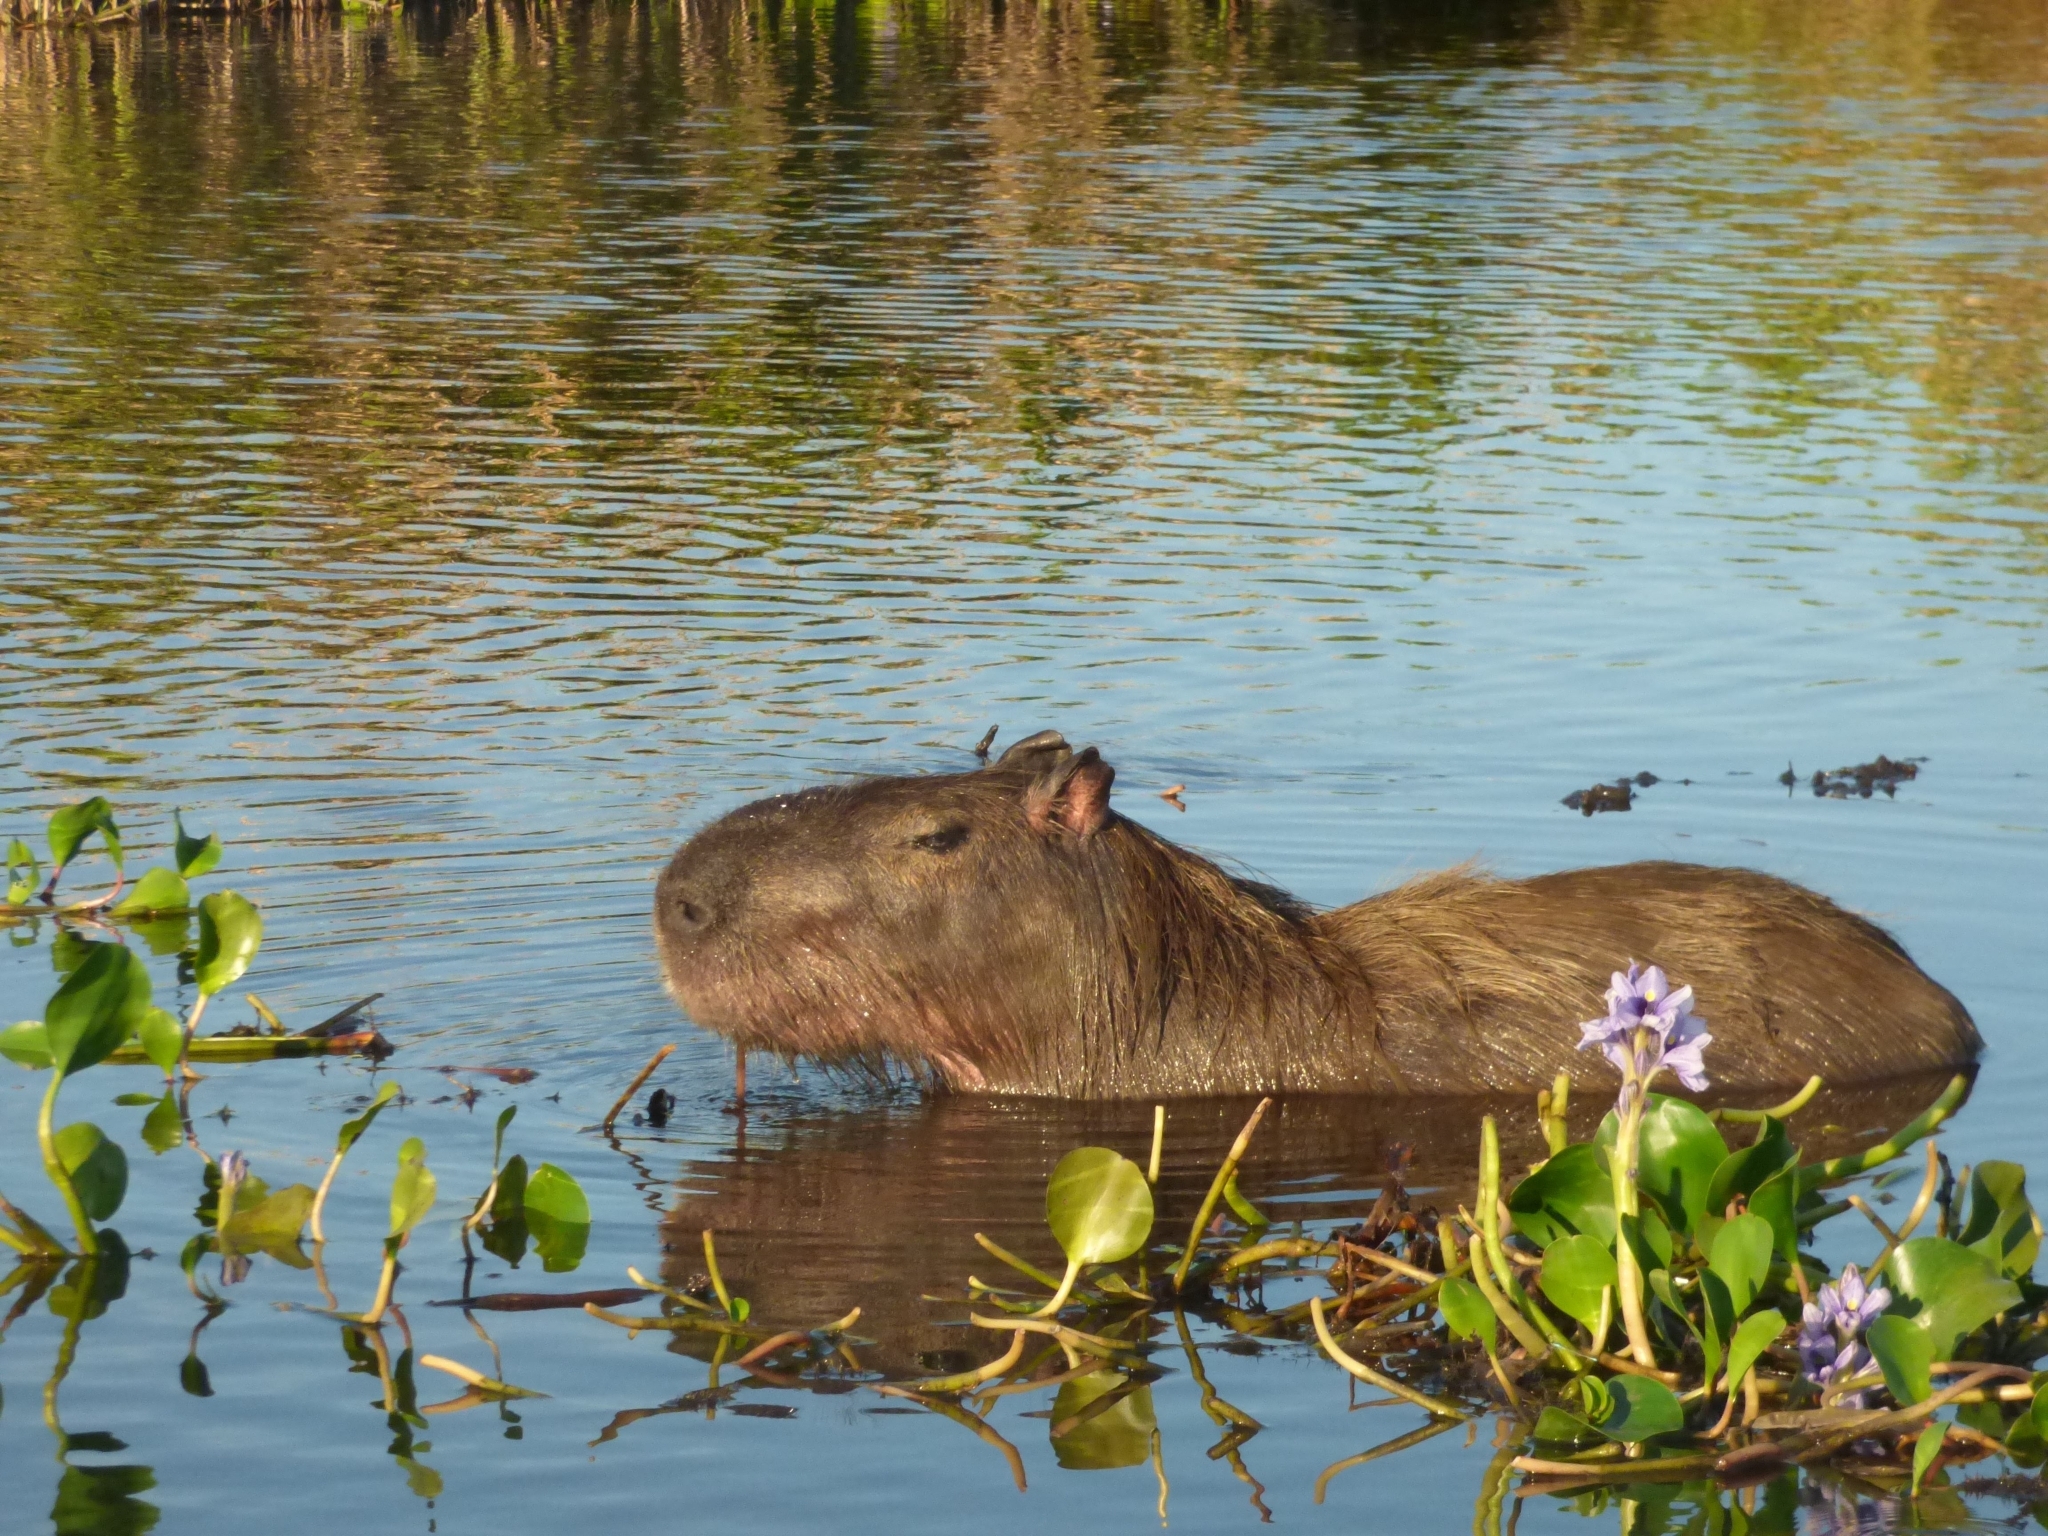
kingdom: Animalia
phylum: Chordata
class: Mammalia
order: Rodentia
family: Caviidae
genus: Hydrochoerus
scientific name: Hydrochoerus hydrochaeris
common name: Capybara
